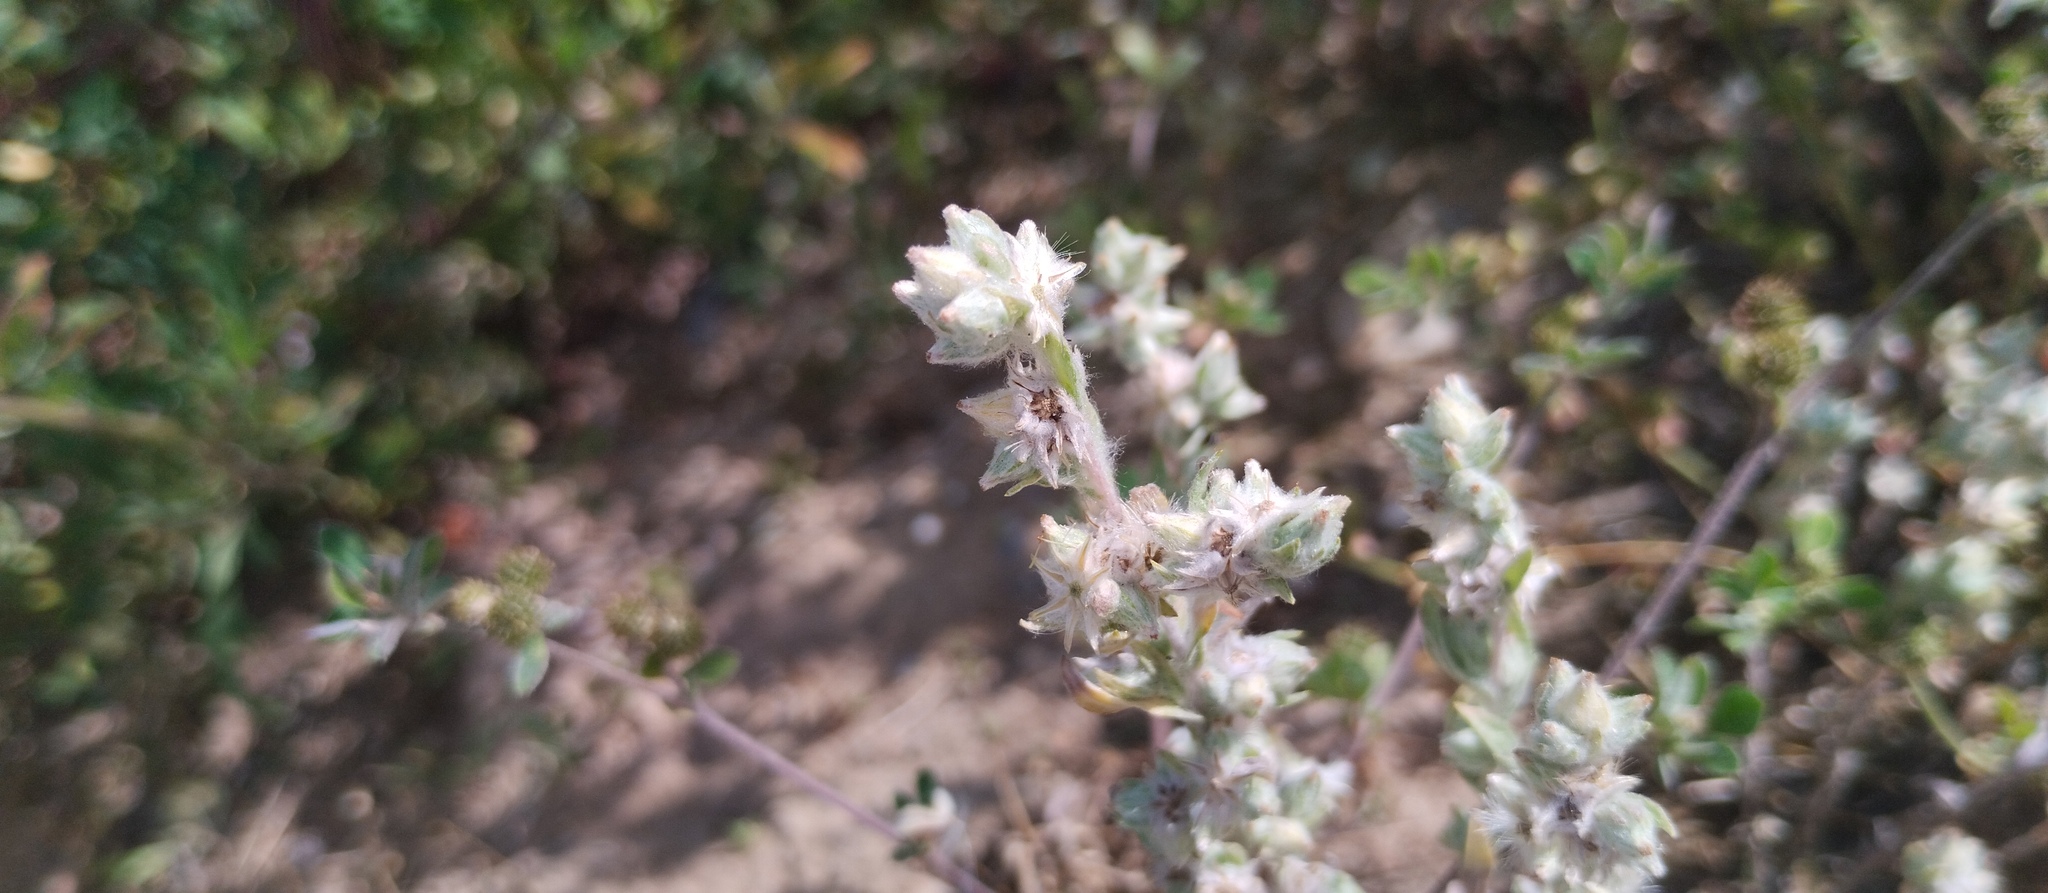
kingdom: Plantae
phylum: Tracheophyta
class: Magnoliopsida
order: Asterales
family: Asteraceae
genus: Filago
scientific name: Filago arvensis
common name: Field cudweed
